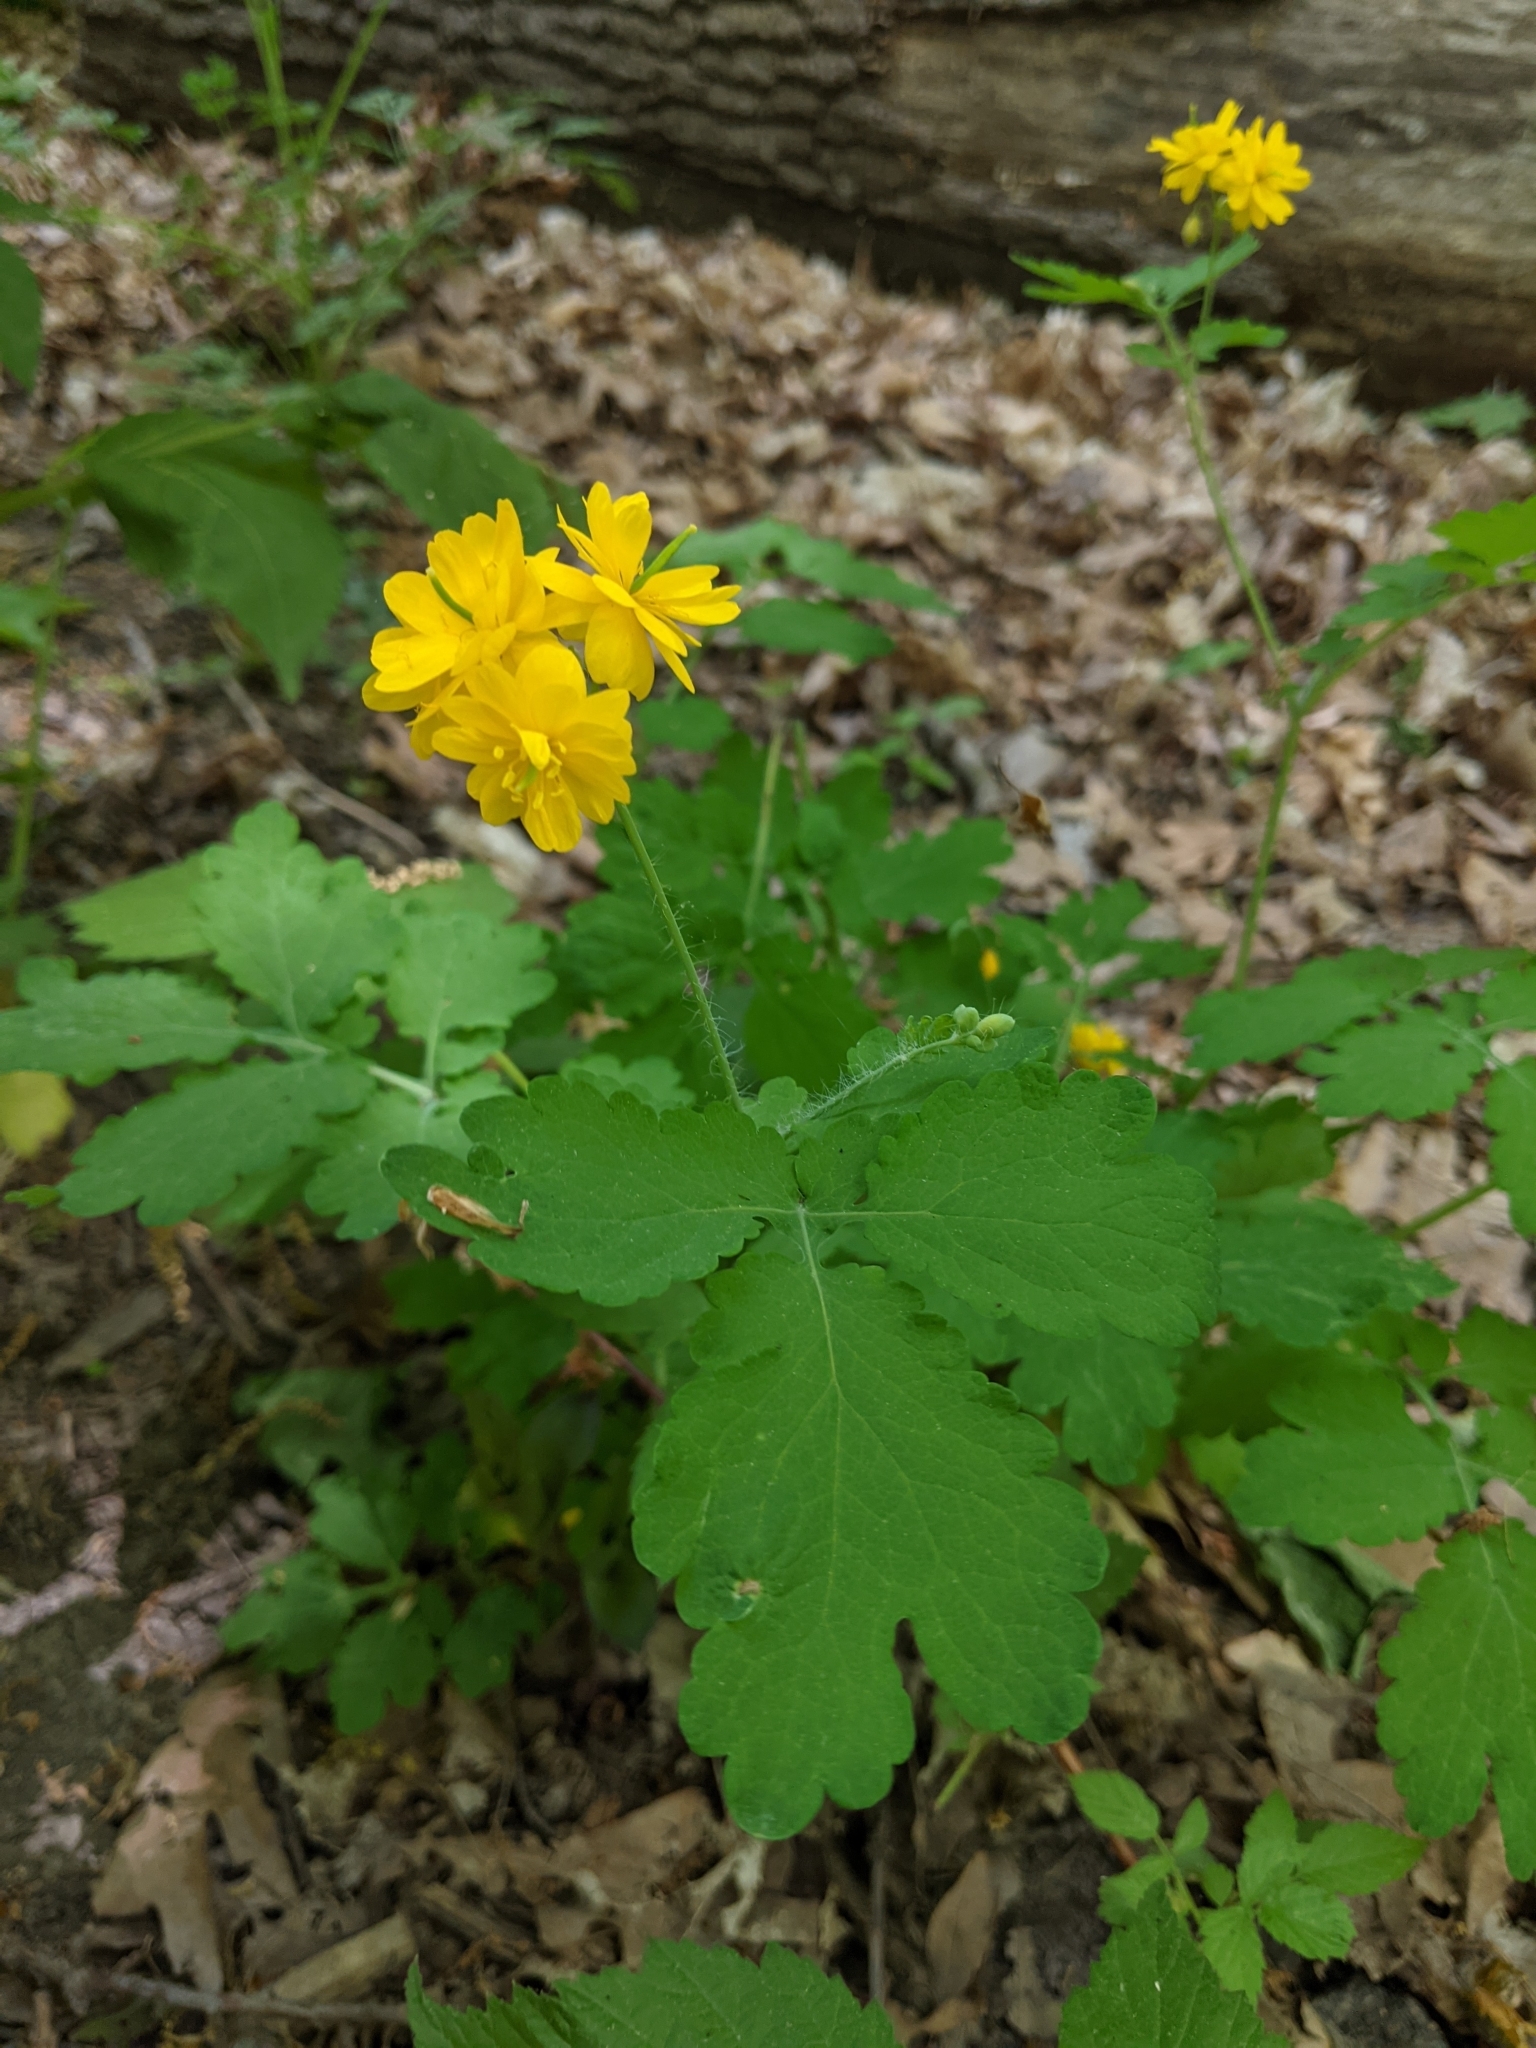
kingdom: Plantae
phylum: Tracheophyta
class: Magnoliopsida
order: Ranunculales
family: Papaveraceae
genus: Chelidonium
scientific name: Chelidonium majus
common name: Greater celandine
